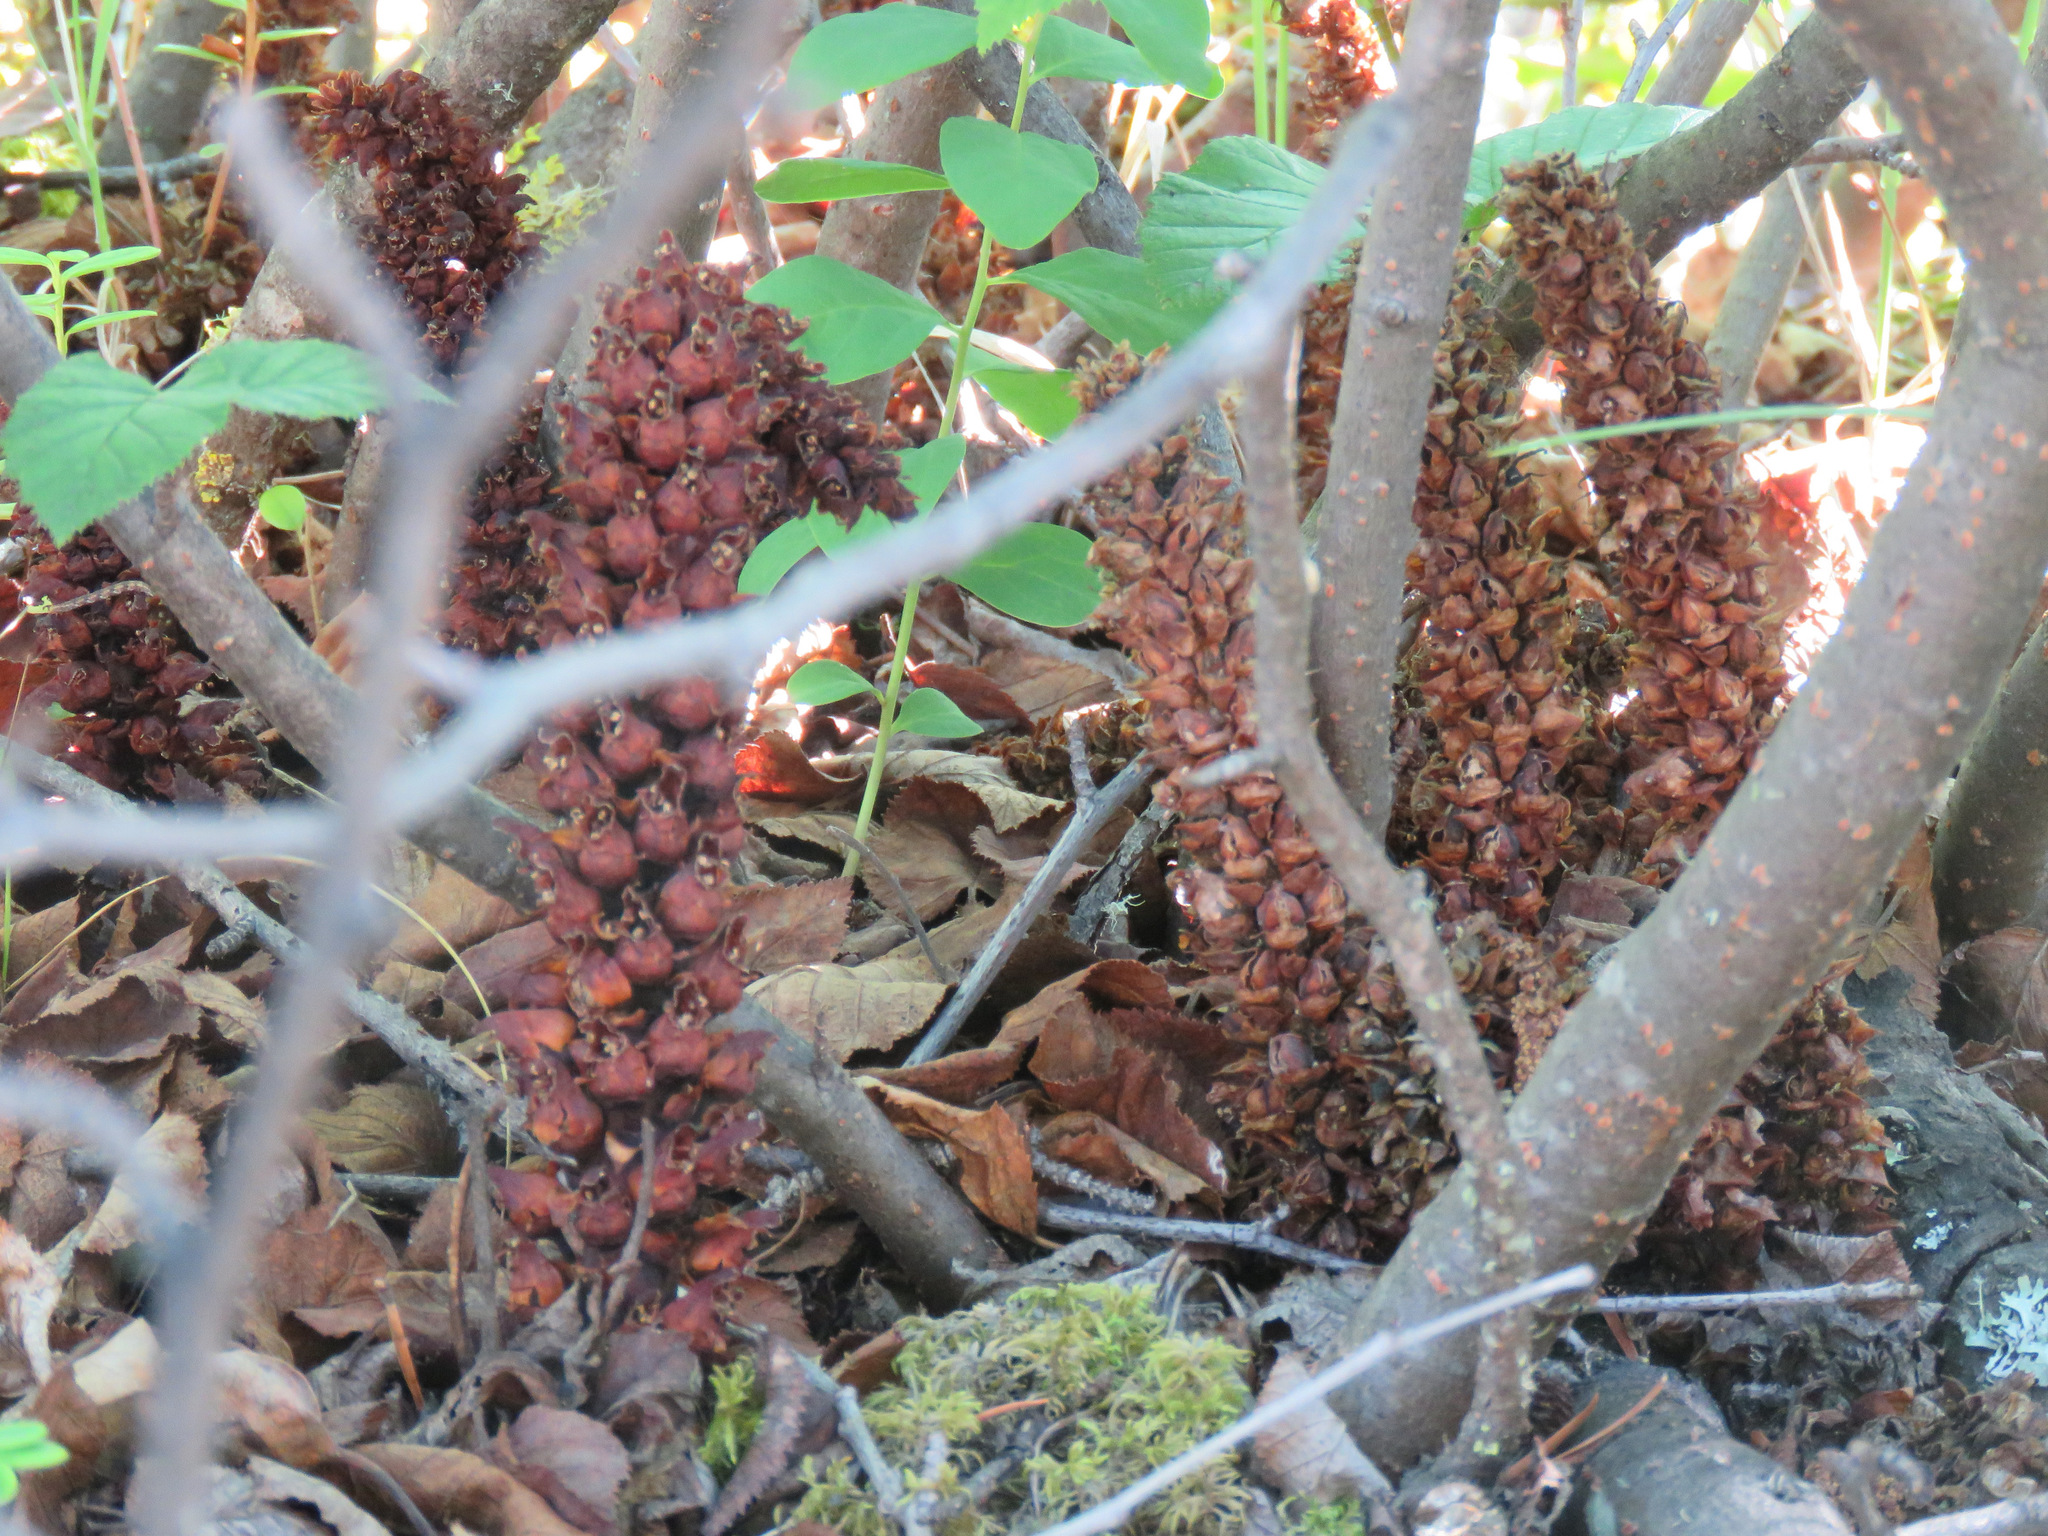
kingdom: Plantae
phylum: Tracheophyta
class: Magnoliopsida
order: Lamiales
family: Orobanchaceae
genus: Boschniakia
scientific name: Boschniakia rossica
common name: Poque
